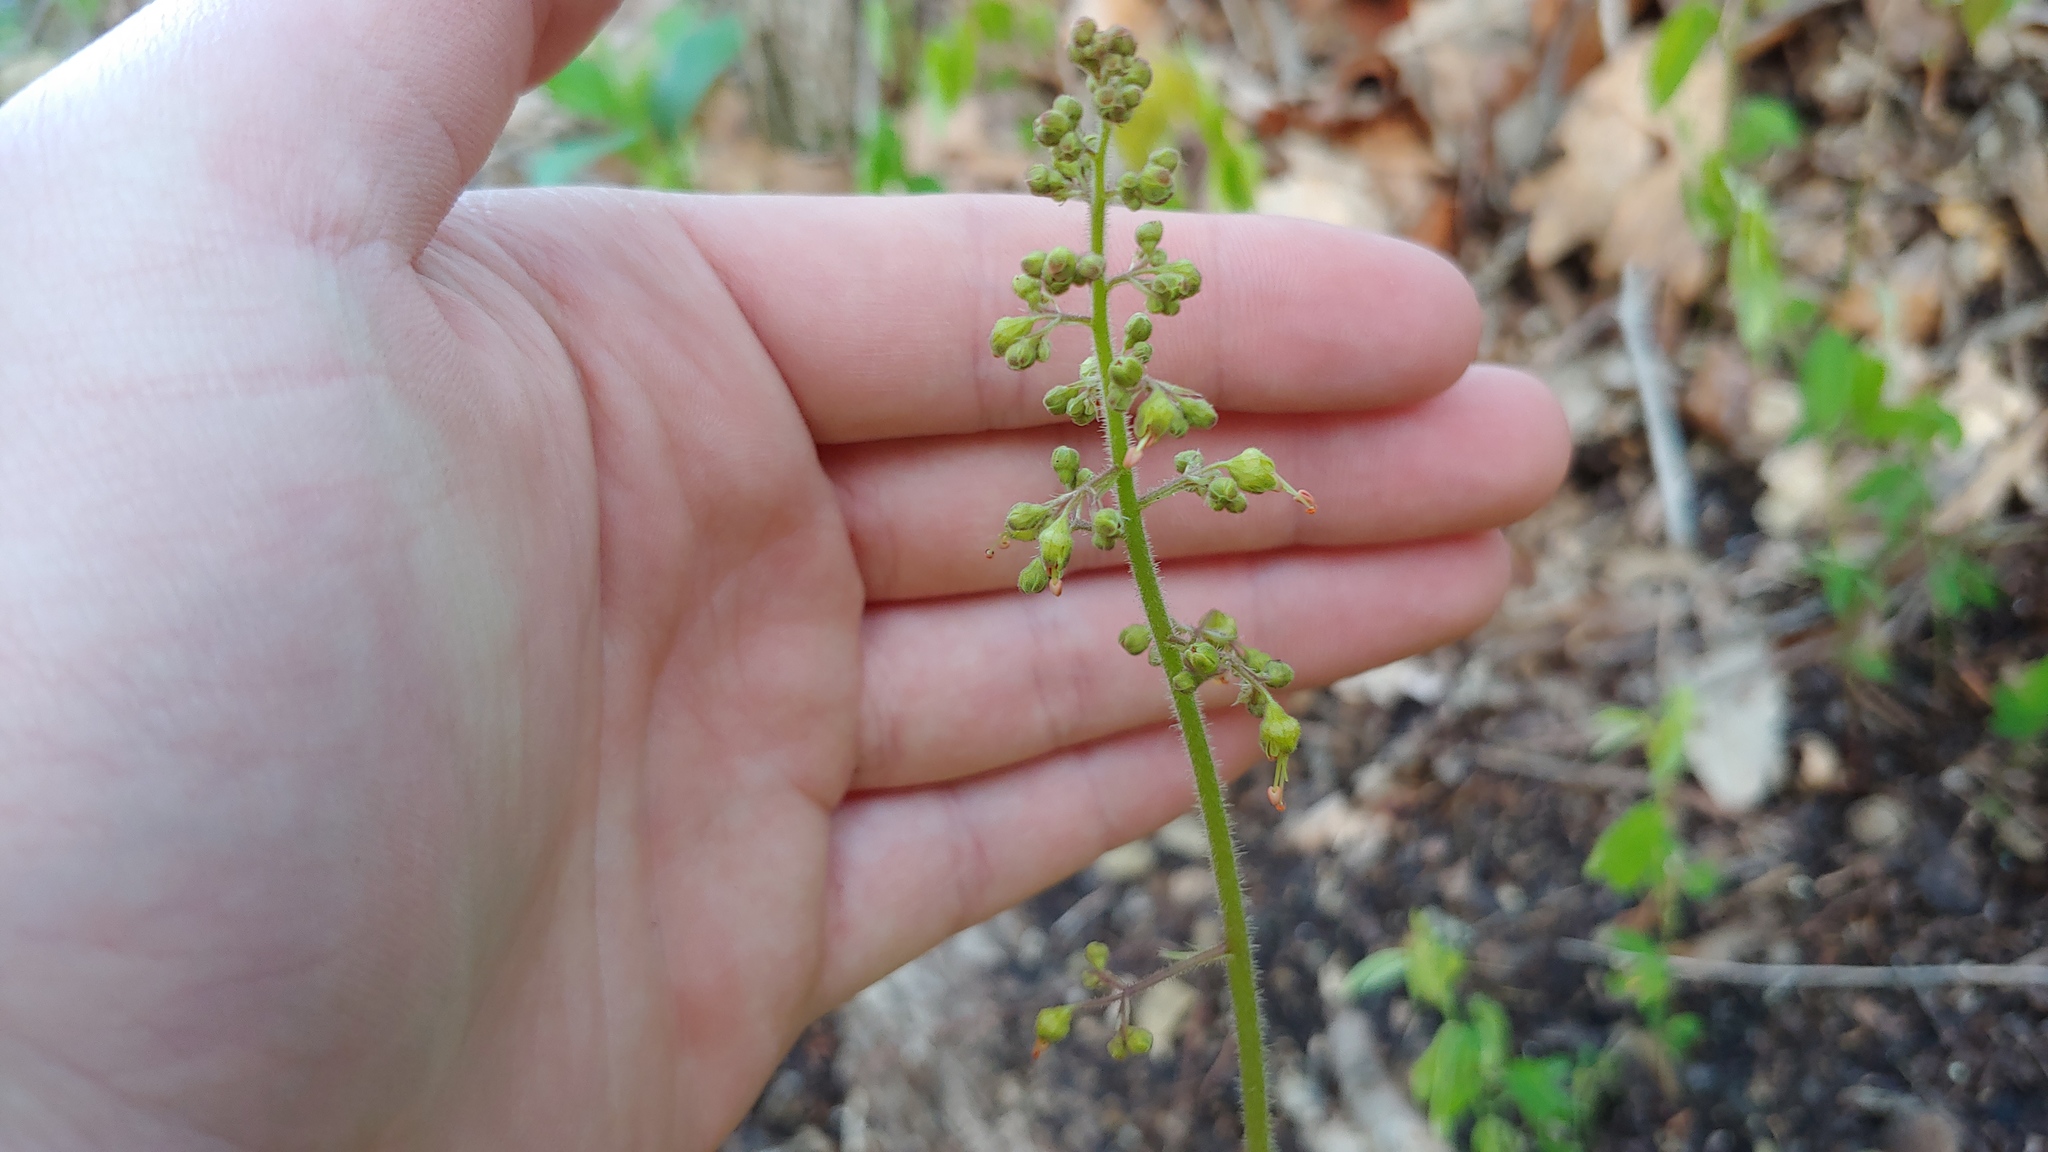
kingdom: Plantae
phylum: Tracheophyta
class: Magnoliopsida
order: Saxifragales
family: Saxifragaceae
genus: Heuchera
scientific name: Heuchera americana
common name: Alumroot
